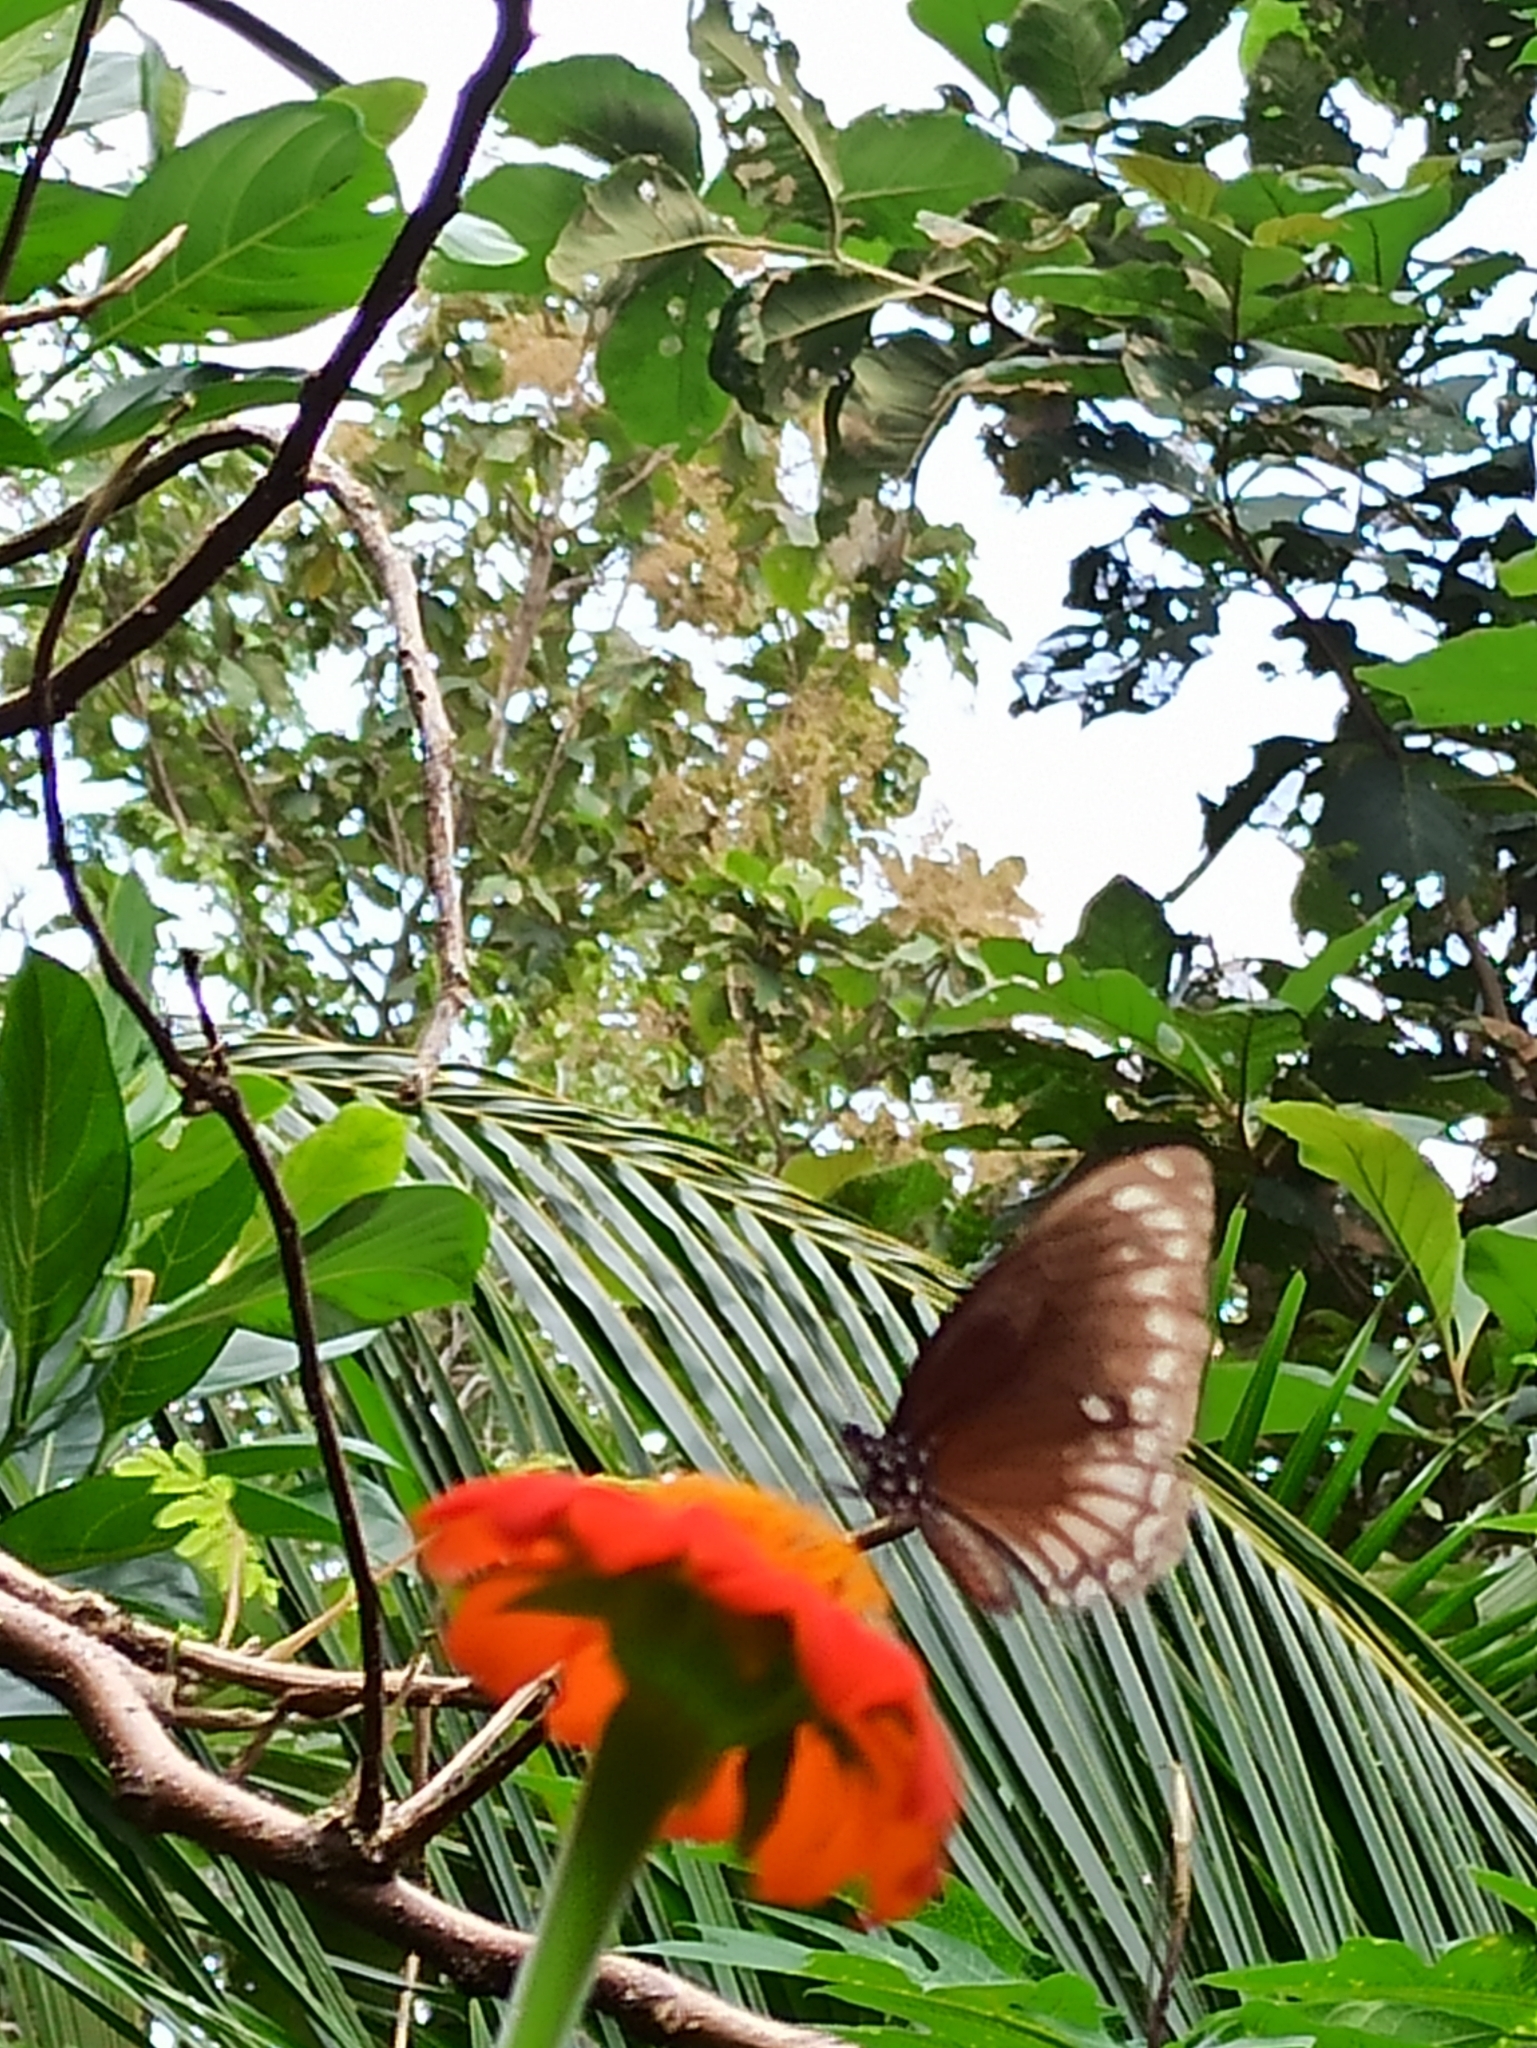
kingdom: Animalia
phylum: Arthropoda
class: Insecta
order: Lepidoptera
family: Papilionidae
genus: Chilasa
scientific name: Chilasa clytia
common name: Common mime
